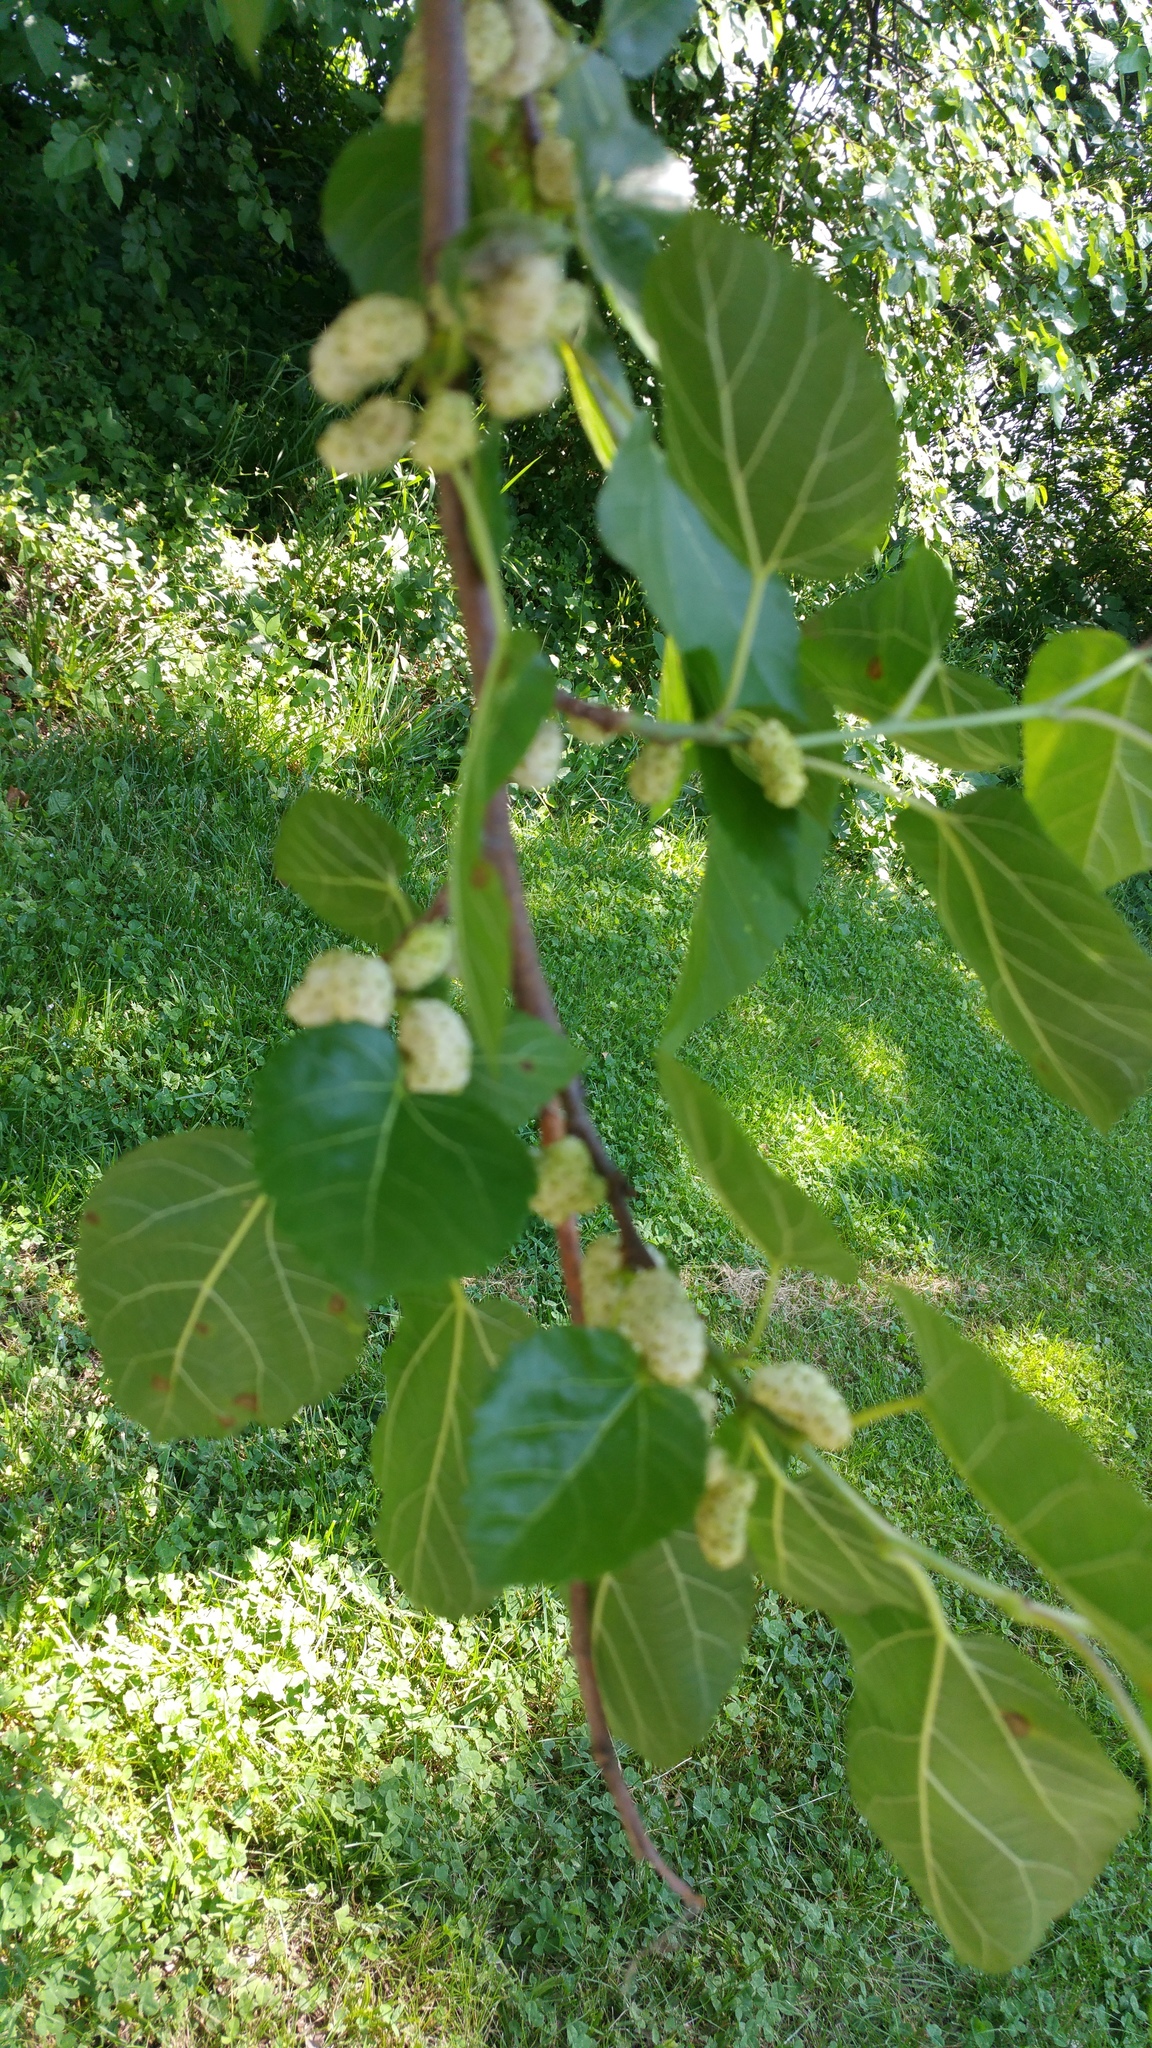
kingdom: Plantae
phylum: Tracheophyta
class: Magnoliopsida
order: Rosales
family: Moraceae
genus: Morus
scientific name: Morus alba
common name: White mulberry
